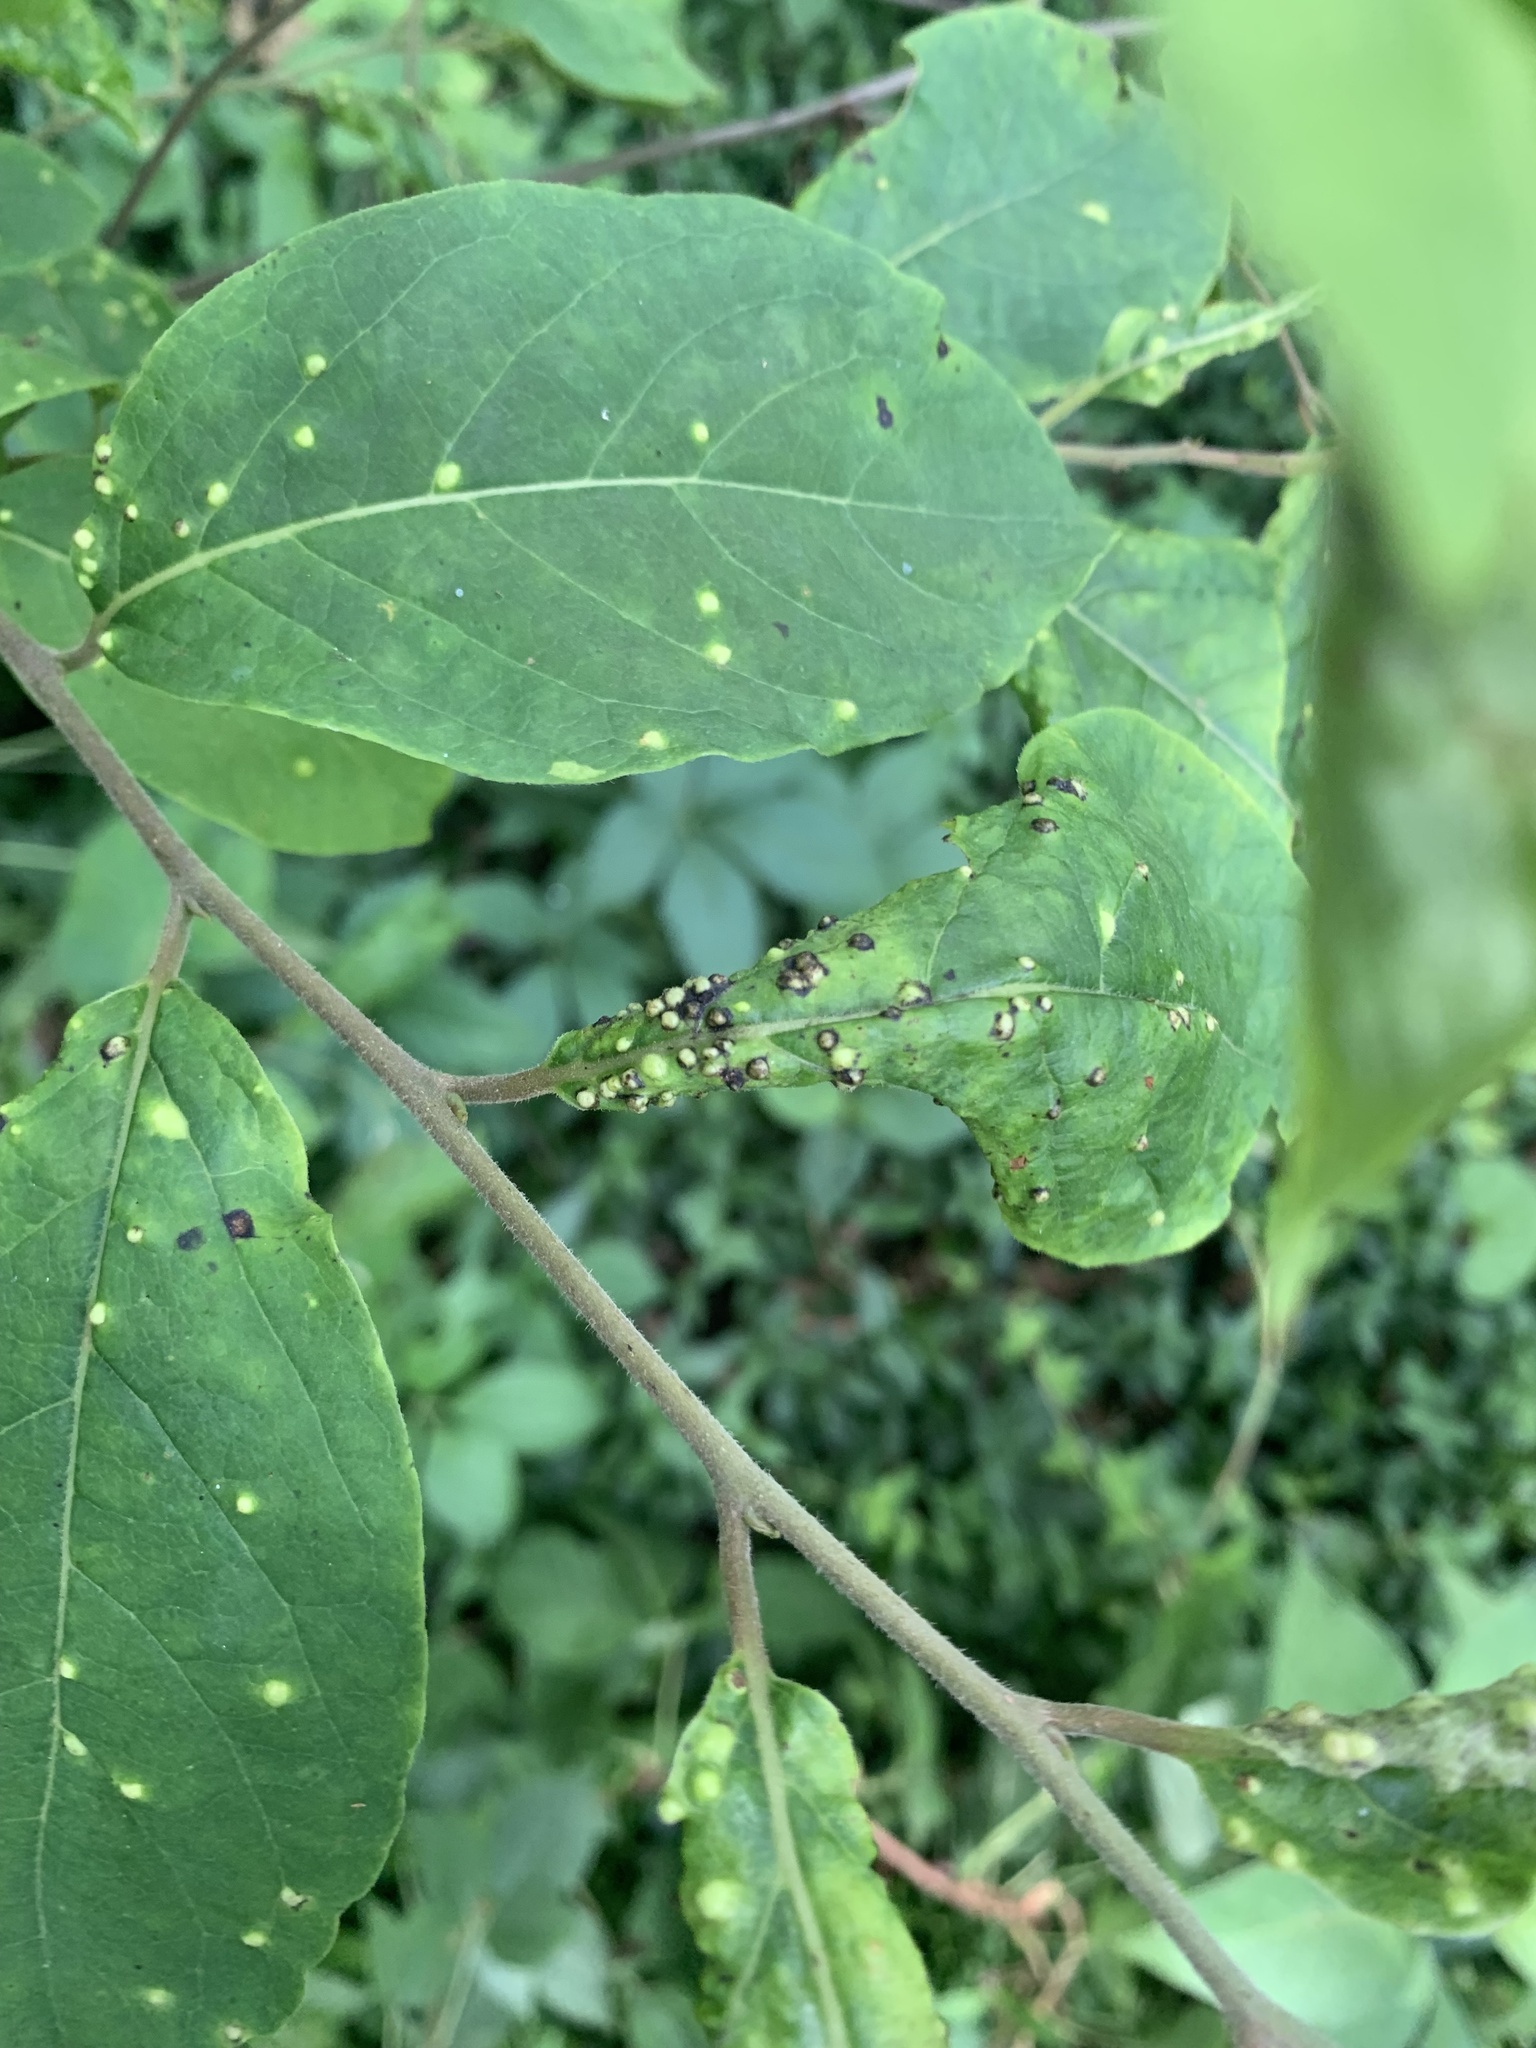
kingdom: Animalia
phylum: Arthropoda
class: Arachnida
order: Trombidiformes
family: Eriophyidae
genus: Aceria
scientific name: Aceria
